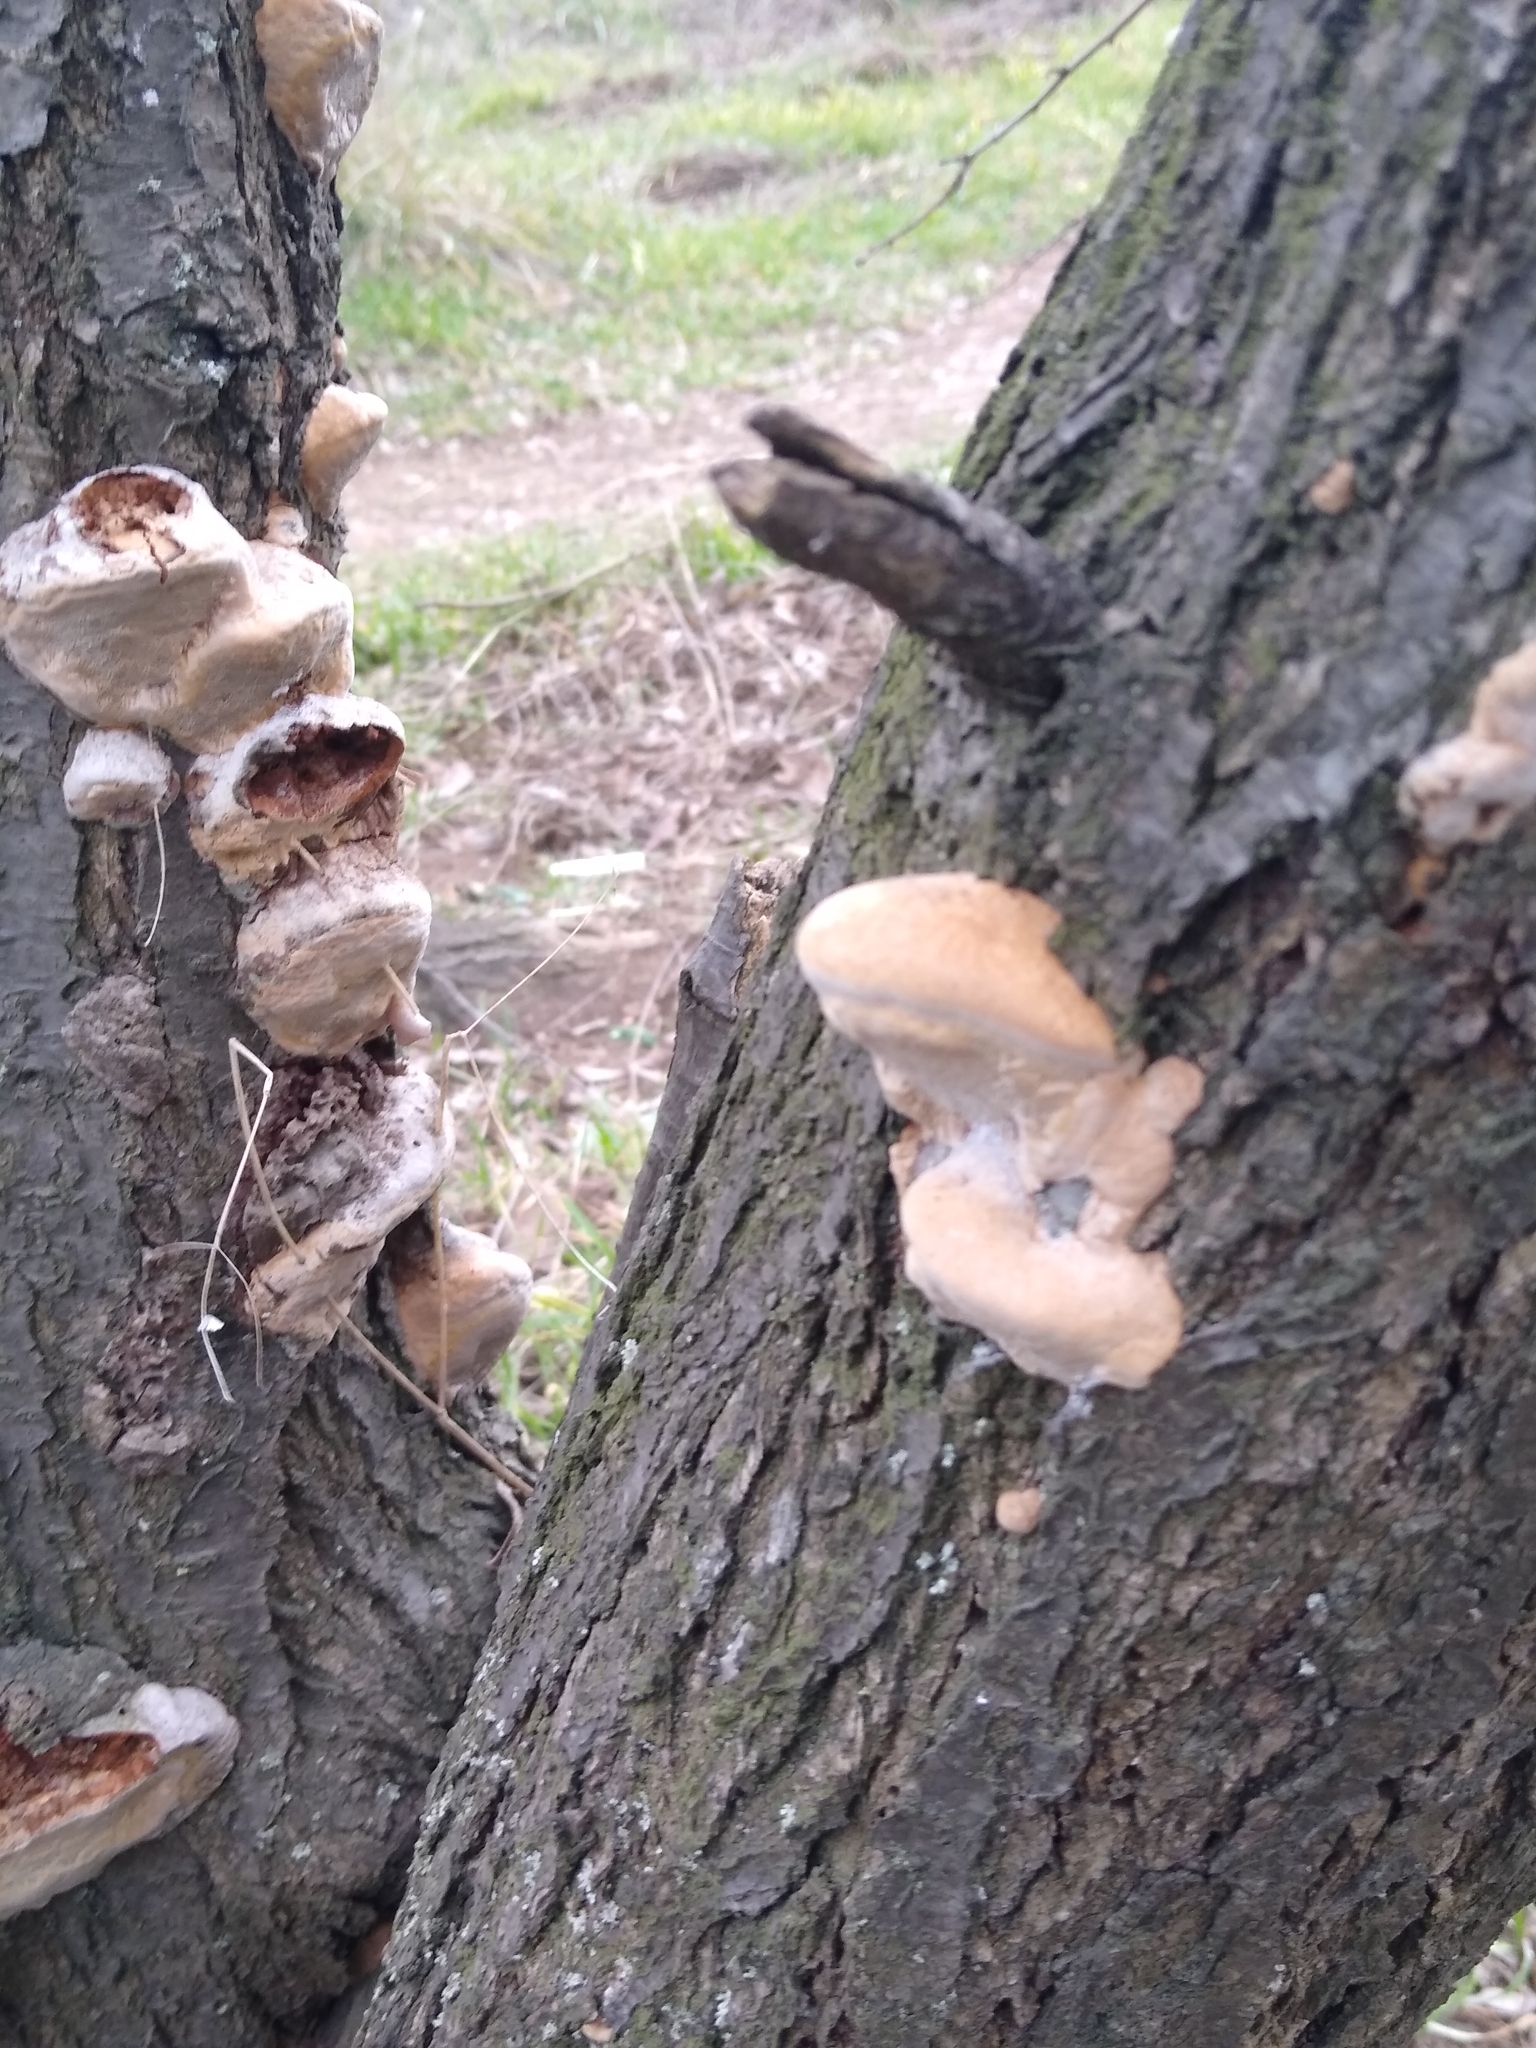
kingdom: Fungi
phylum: Basidiomycota
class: Agaricomycetes
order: Hymenochaetales
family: Hymenochaetaceae
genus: Phellinus
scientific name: Phellinus pomaceus
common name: Cushion bracket
